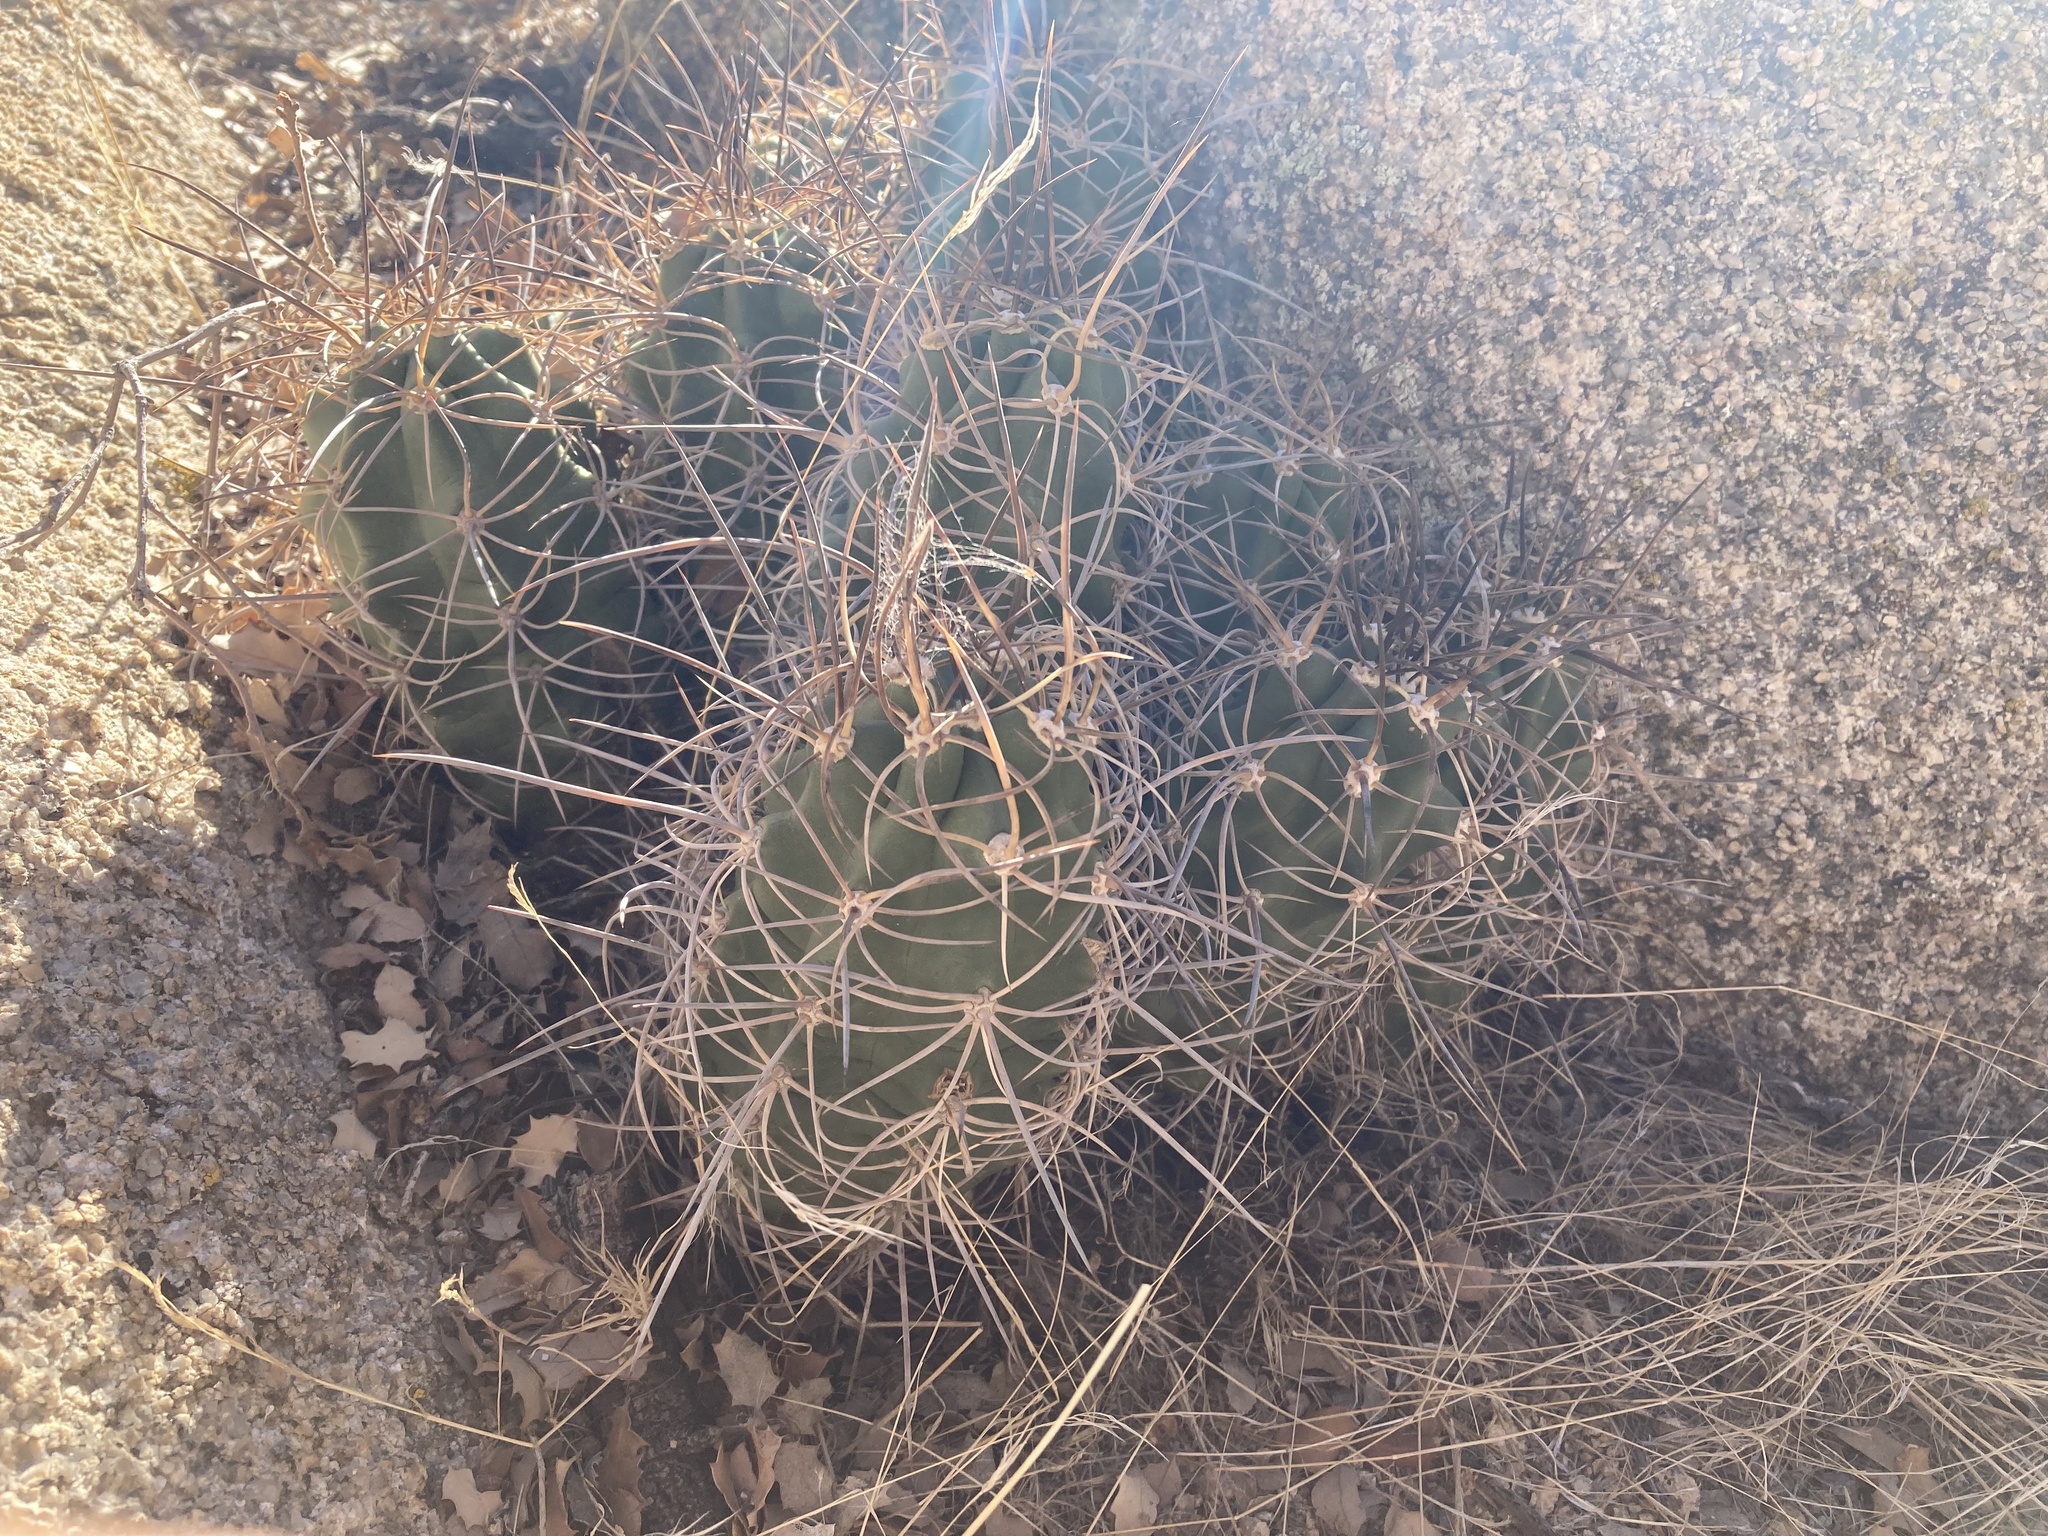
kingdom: Plantae
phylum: Tracheophyta
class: Magnoliopsida
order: Caryophyllales
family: Cactaceae
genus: Echinocereus
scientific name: Echinocereus triglochidiatus
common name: Claretcup hedgehog
